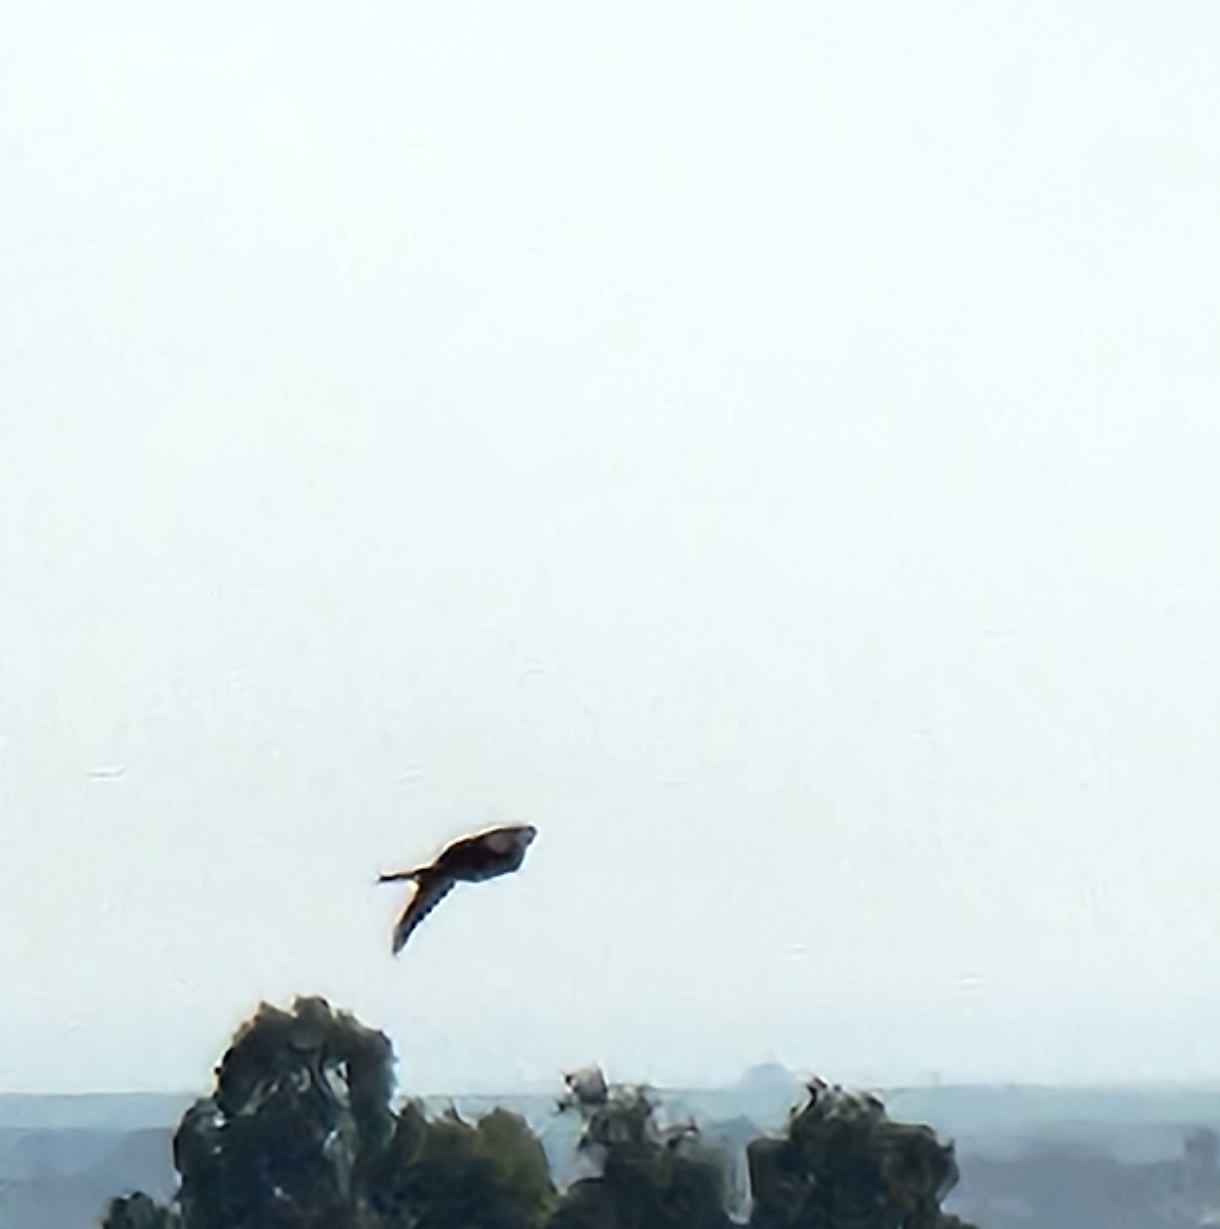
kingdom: Animalia
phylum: Chordata
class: Aves
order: Accipitriformes
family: Accipitridae
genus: Milvus
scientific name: Milvus migrans
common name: Black kite
